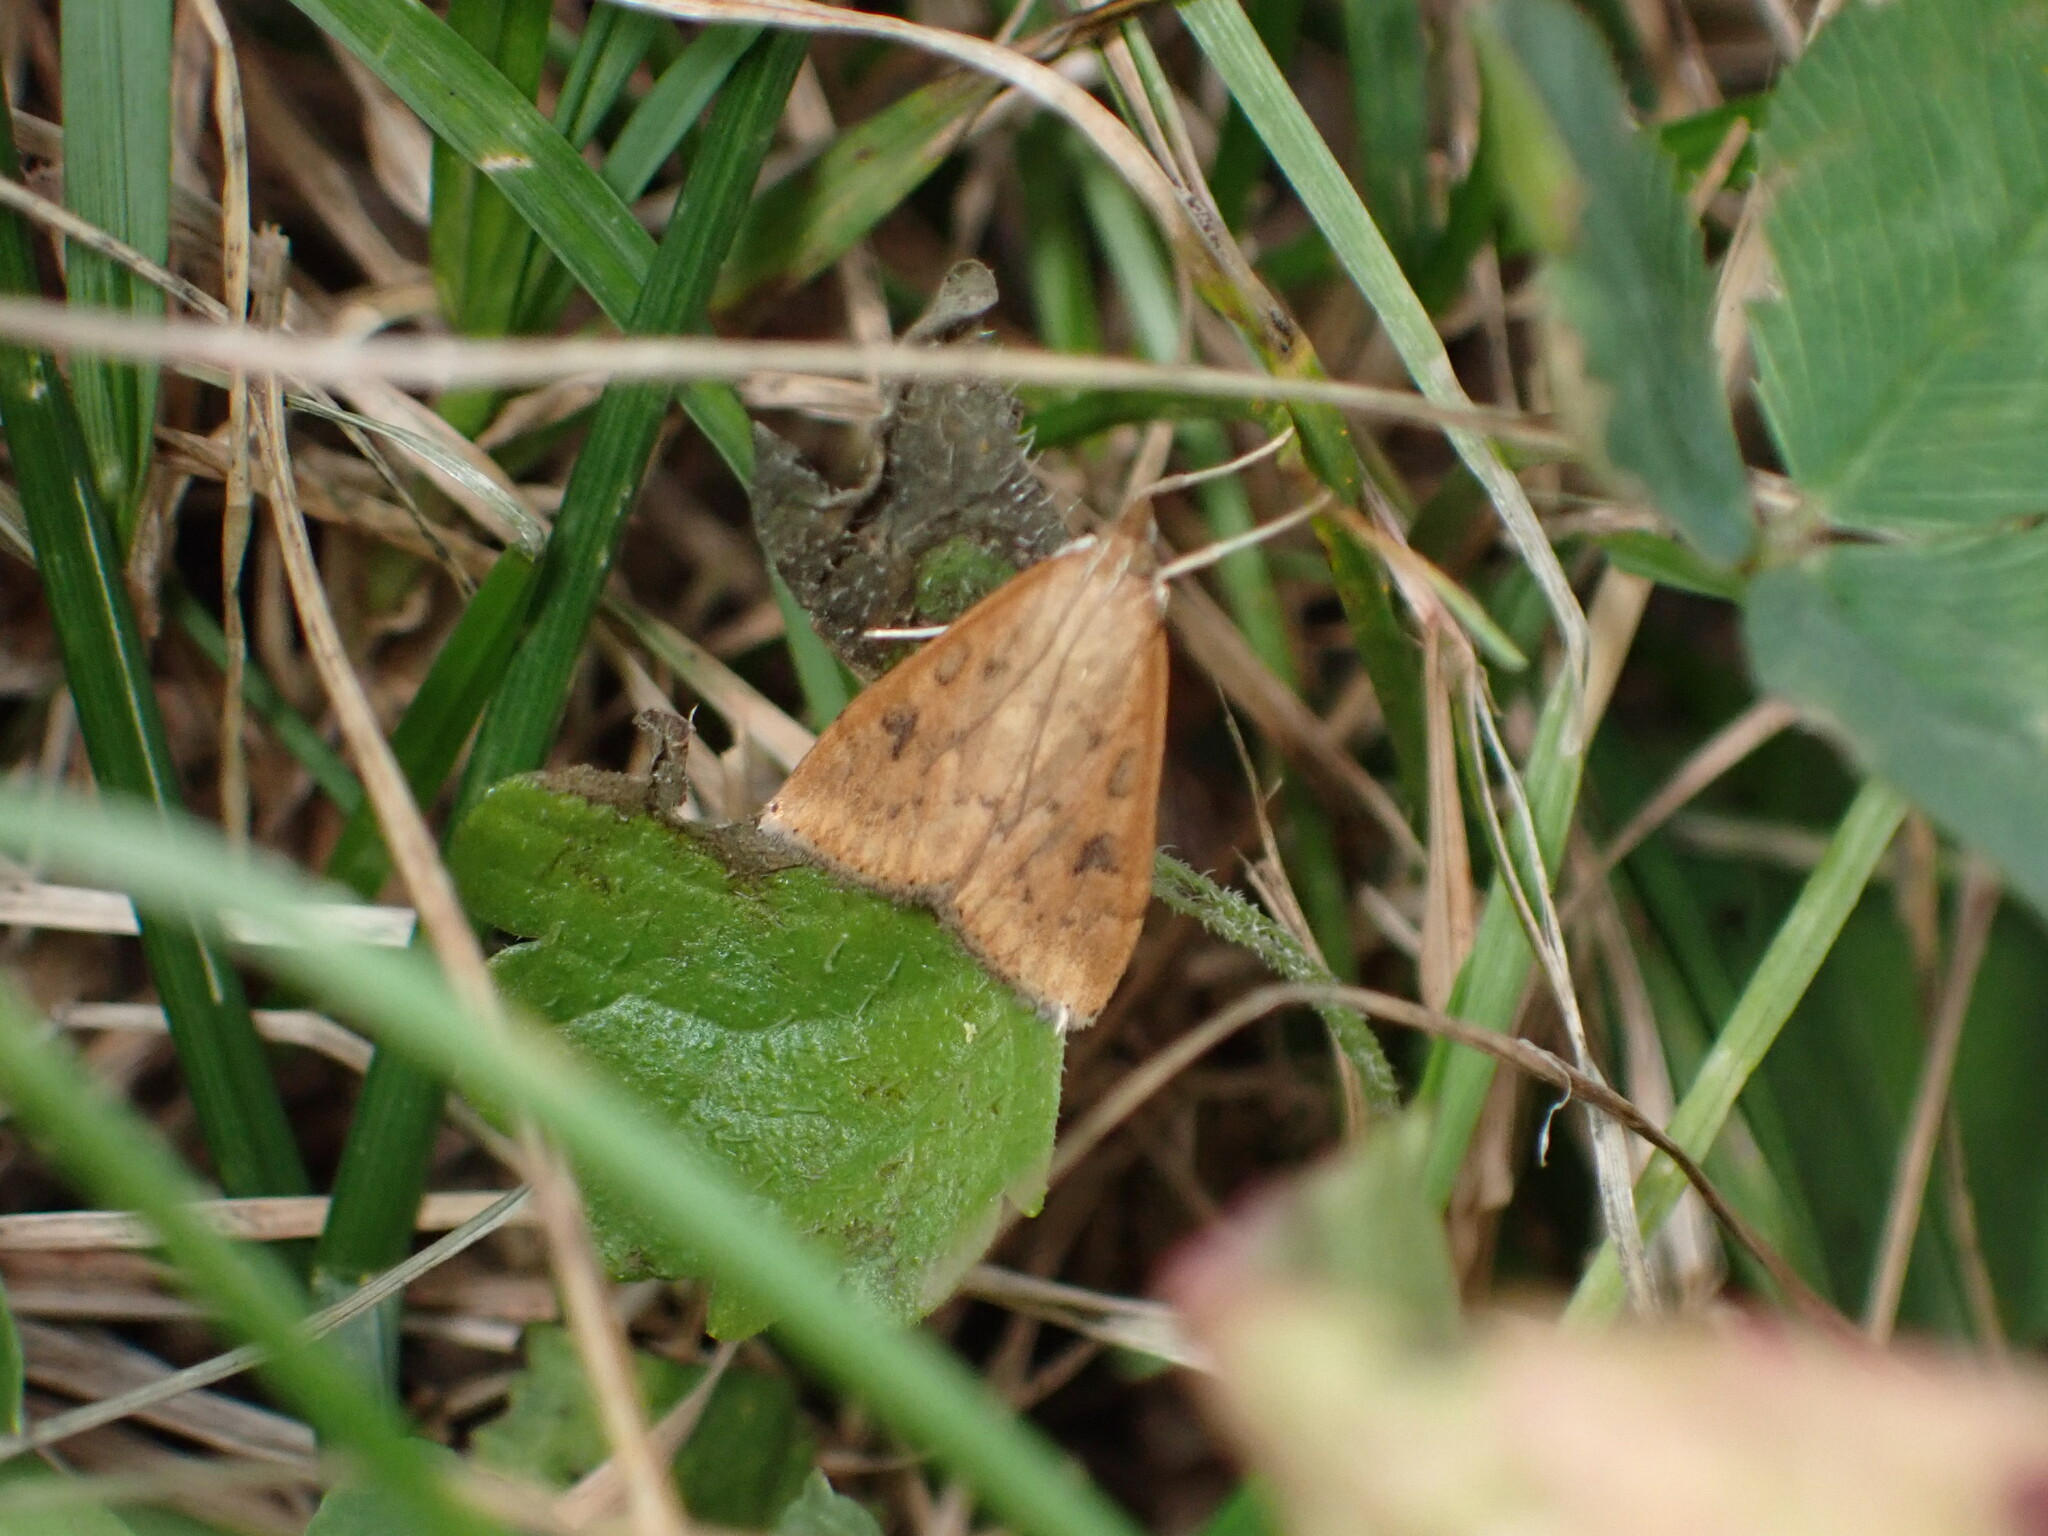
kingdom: Animalia
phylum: Arthropoda
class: Insecta
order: Lepidoptera
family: Crambidae
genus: Udea
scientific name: Udea ferrugalis
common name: Rusty dot
